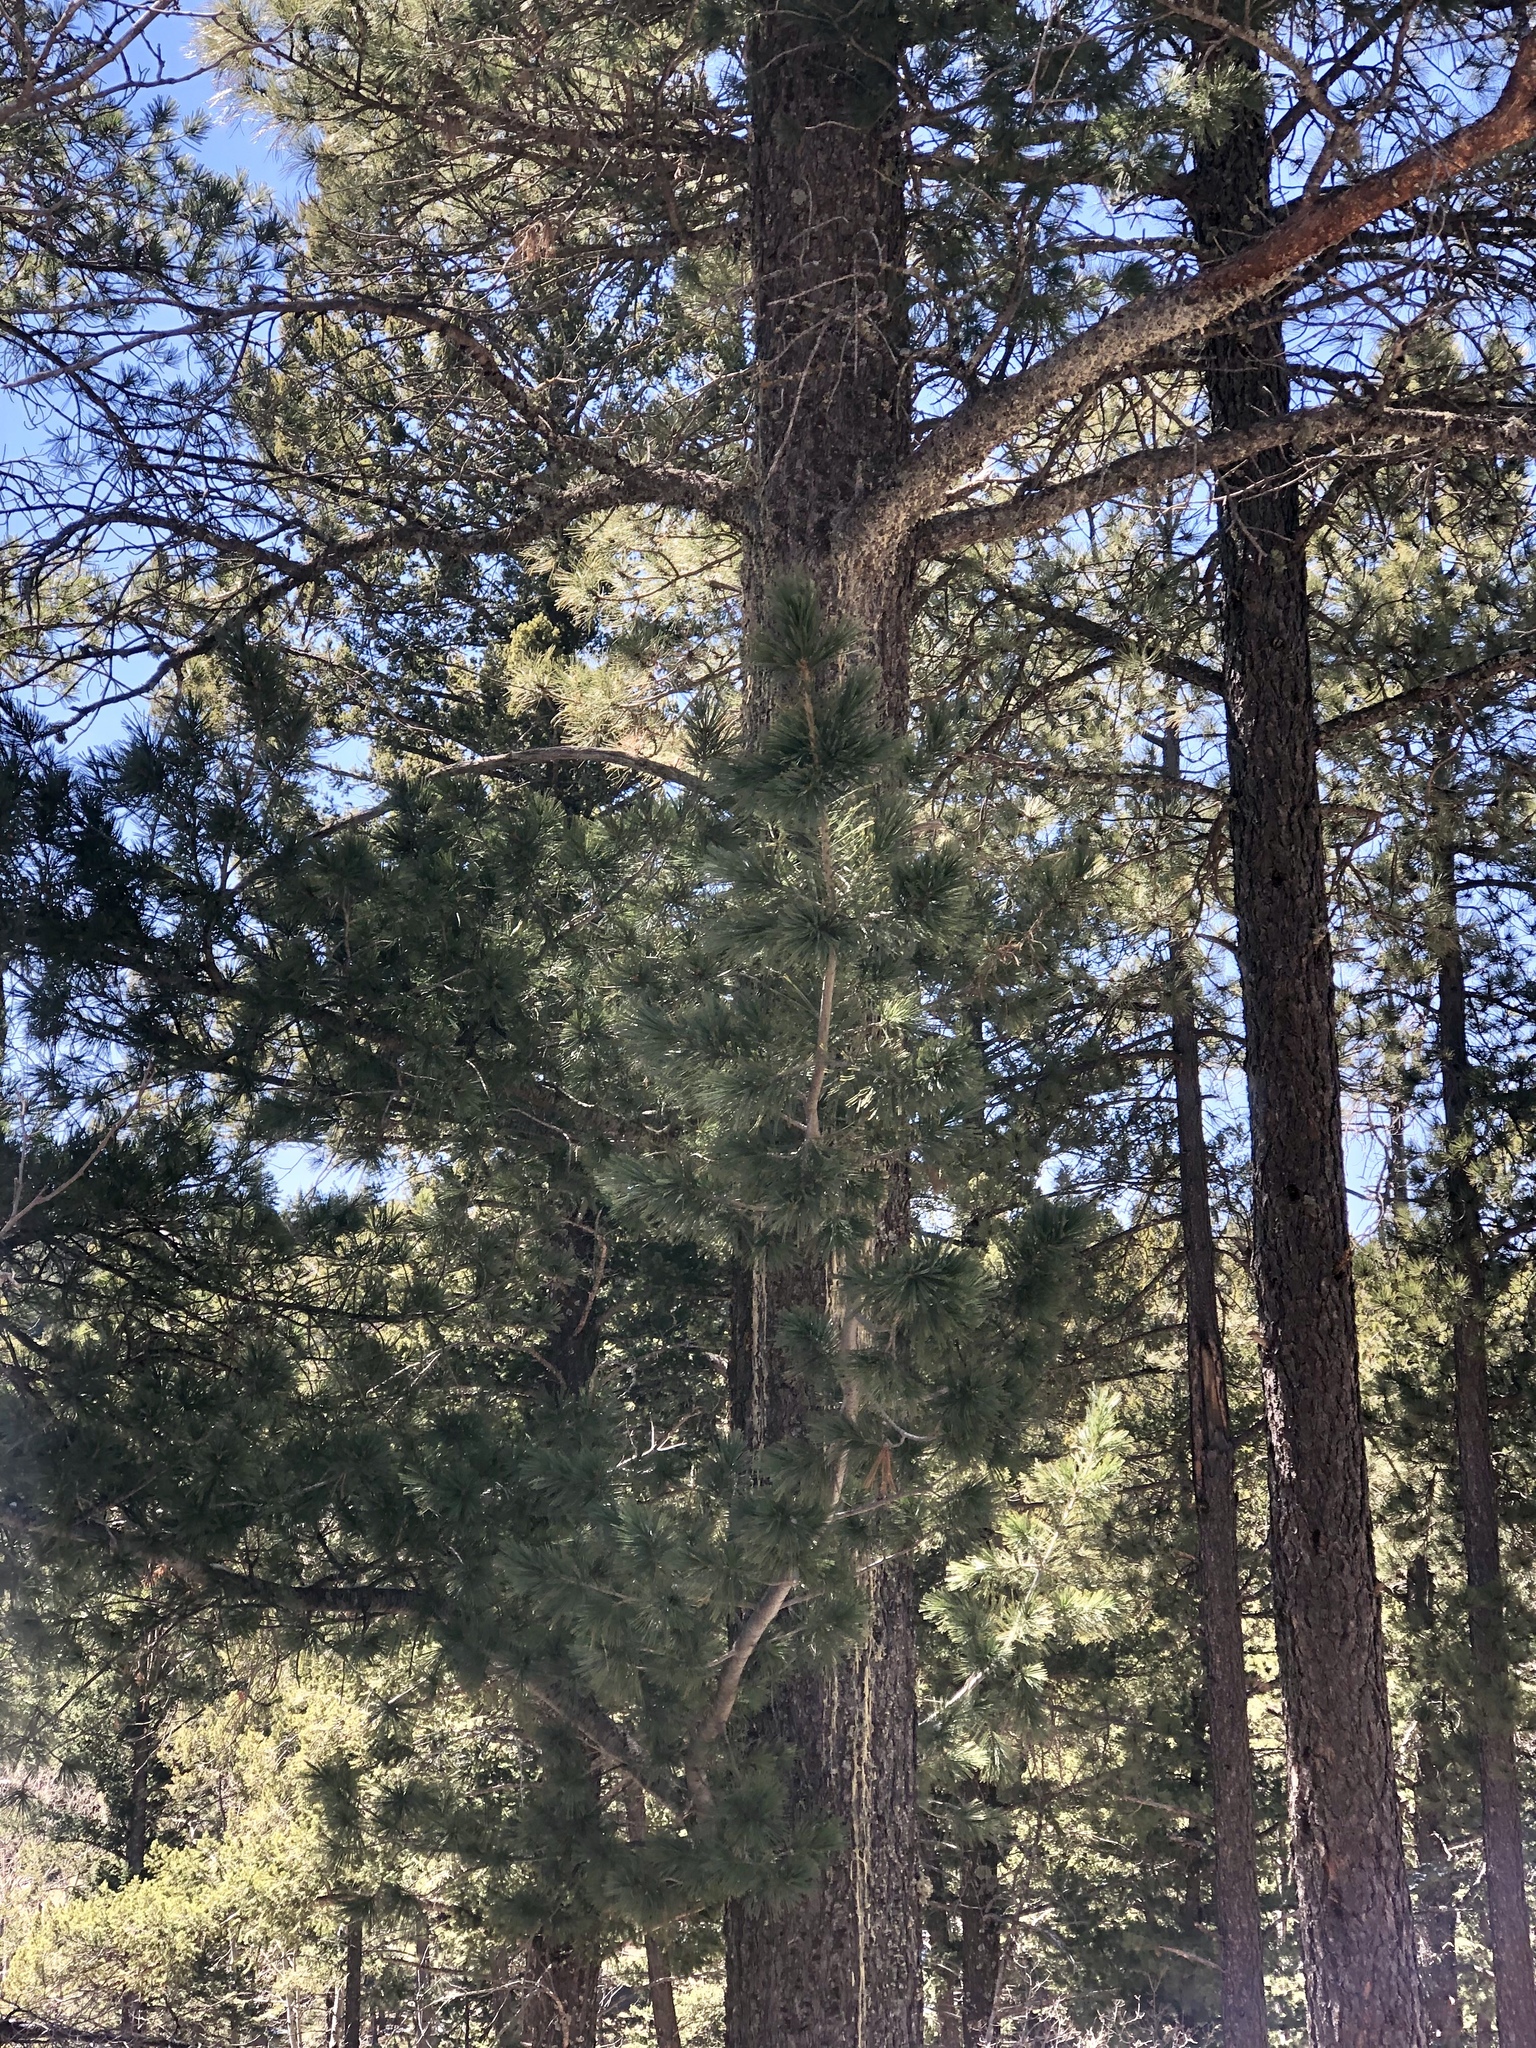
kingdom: Plantae
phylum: Tracheophyta
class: Pinopsida
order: Pinales
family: Pinaceae
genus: Pinus
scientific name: Pinus strobiformis
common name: Southwestern white pine
